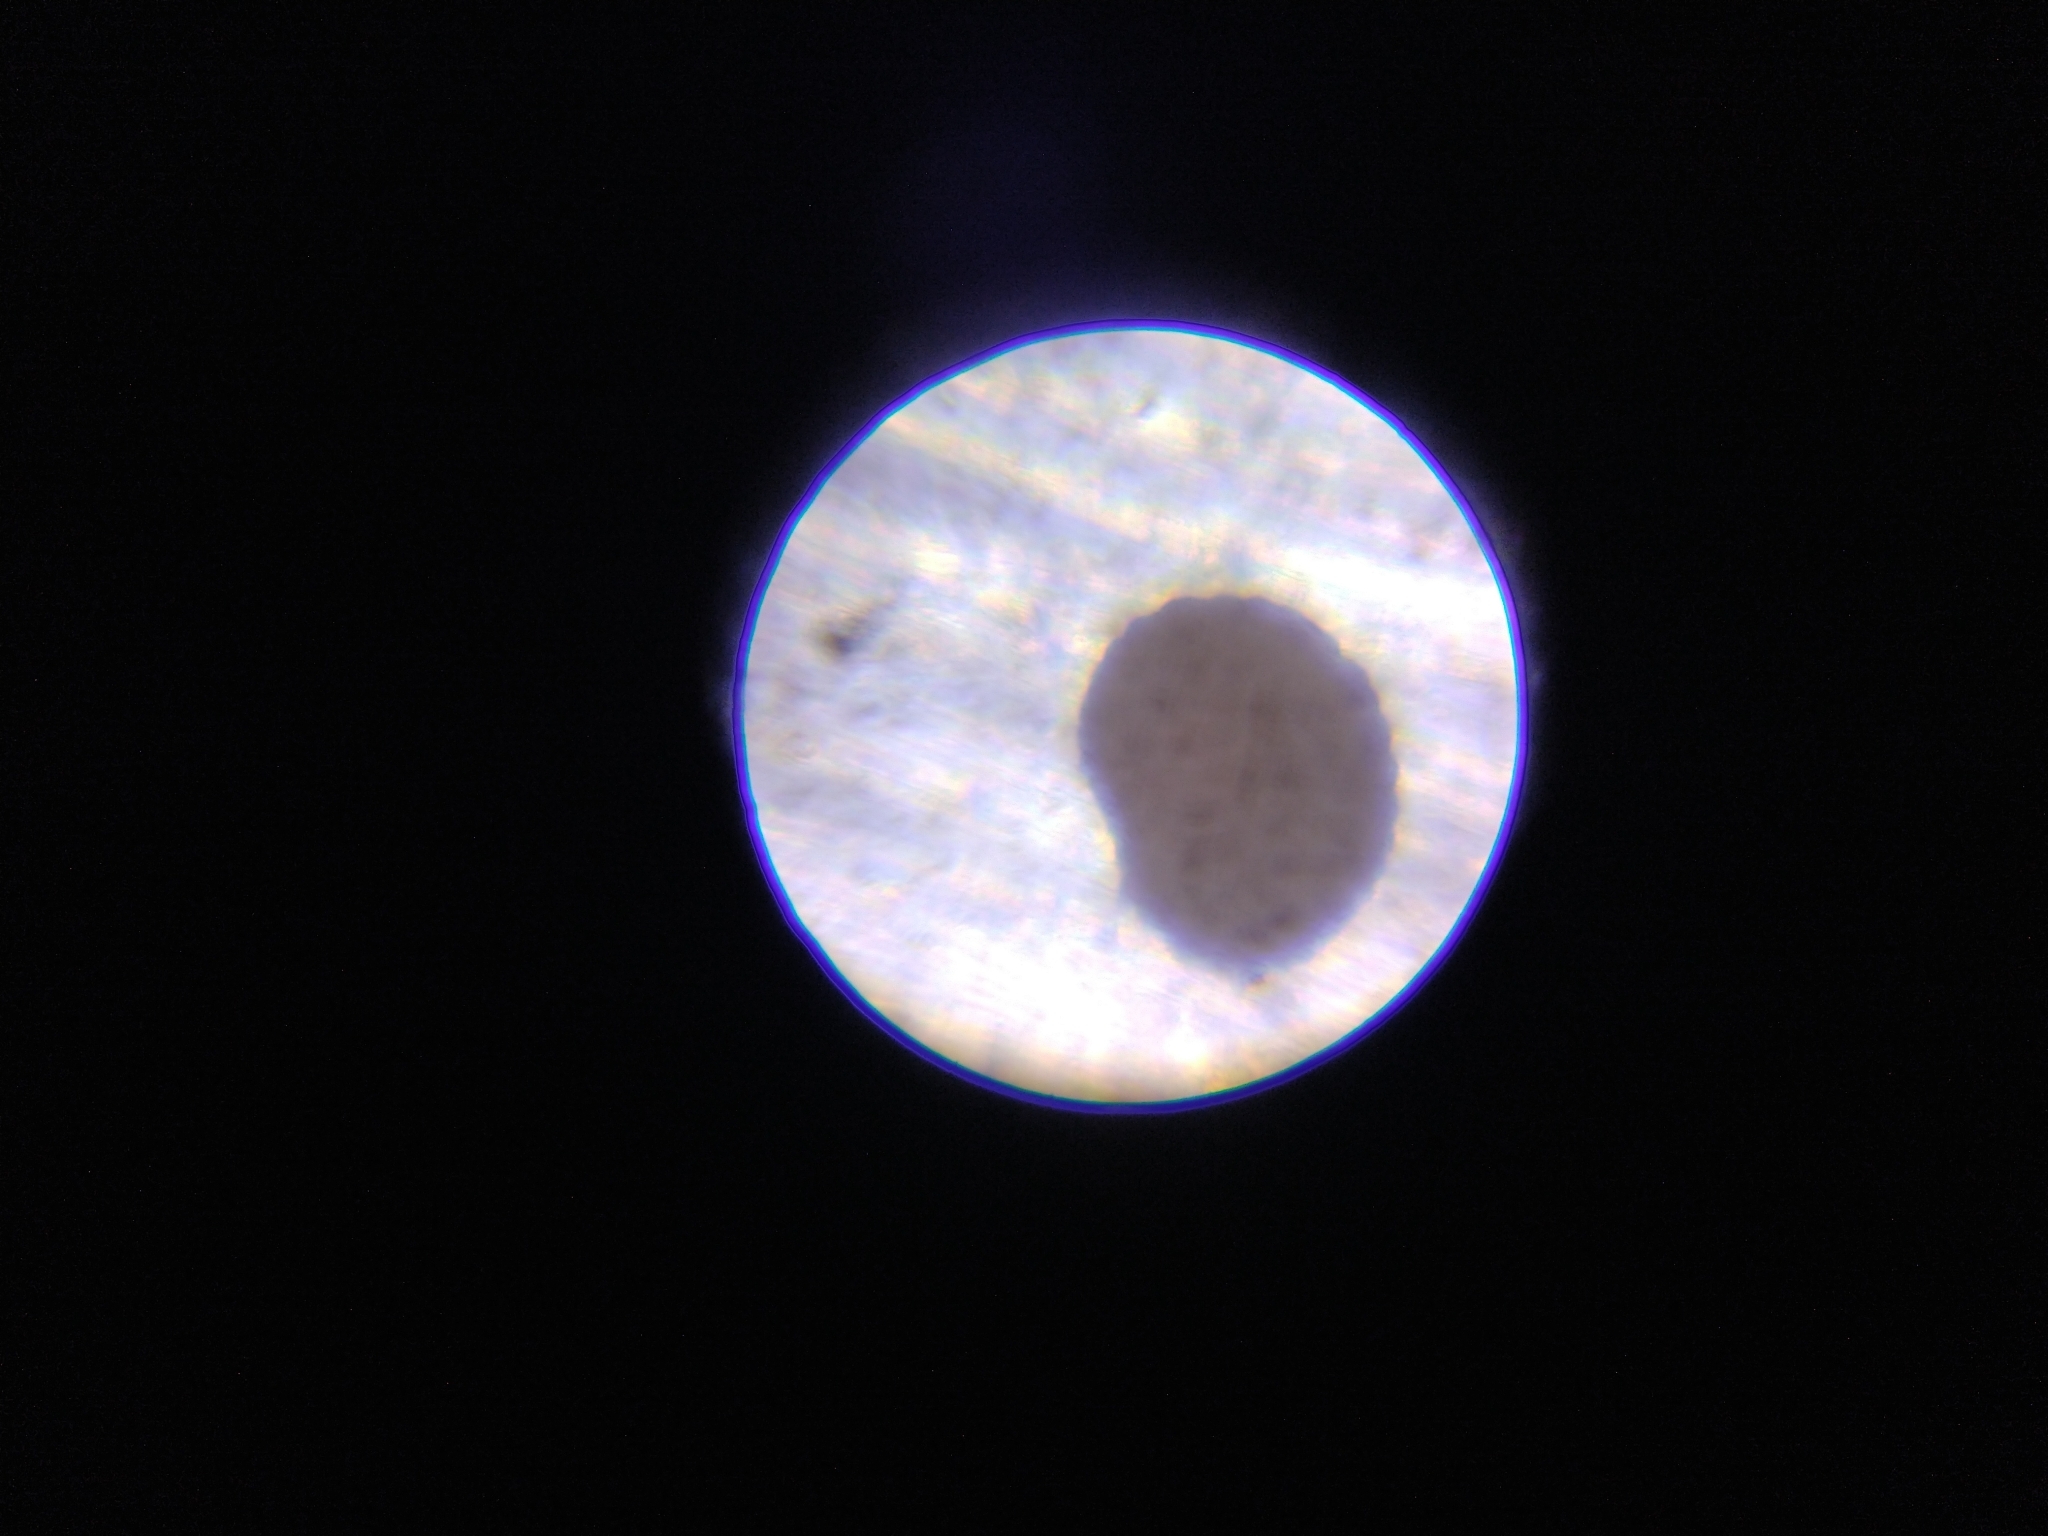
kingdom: Plantae
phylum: Tracheophyta
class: Magnoliopsida
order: Caryophyllales
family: Caryophyllaceae
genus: Sagina
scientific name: Sagina japonica
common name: Japanese pearlwort
